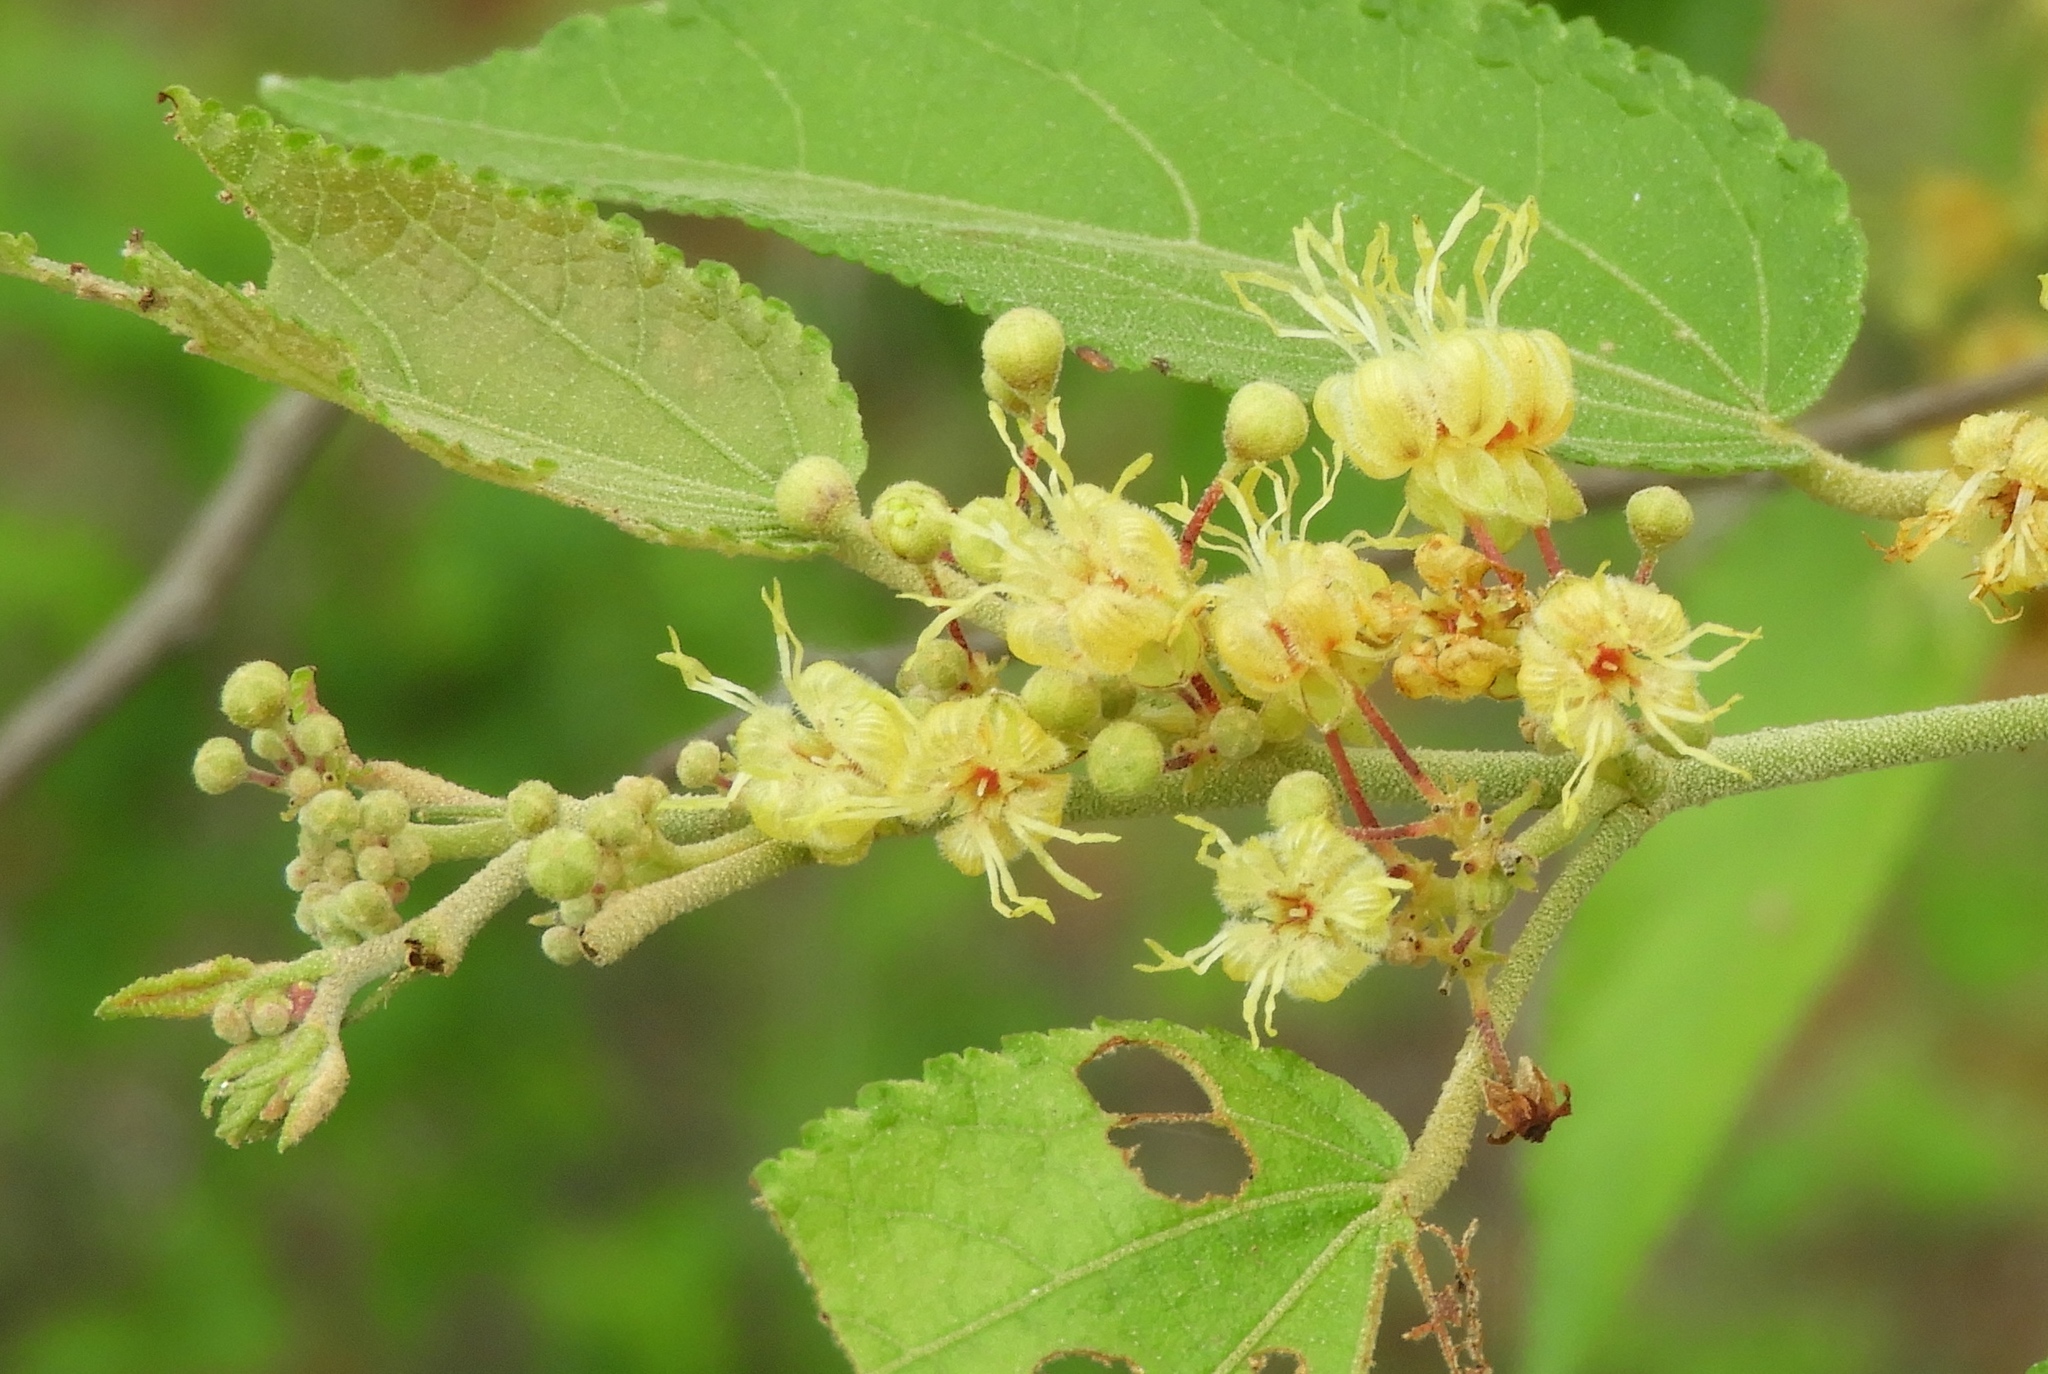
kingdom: Plantae
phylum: Tracheophyta
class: Magnoliopsida
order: Malvales
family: Malvaceae
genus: Guazuma
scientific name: Guazuma ulmifolia
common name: Bastard-cedar
